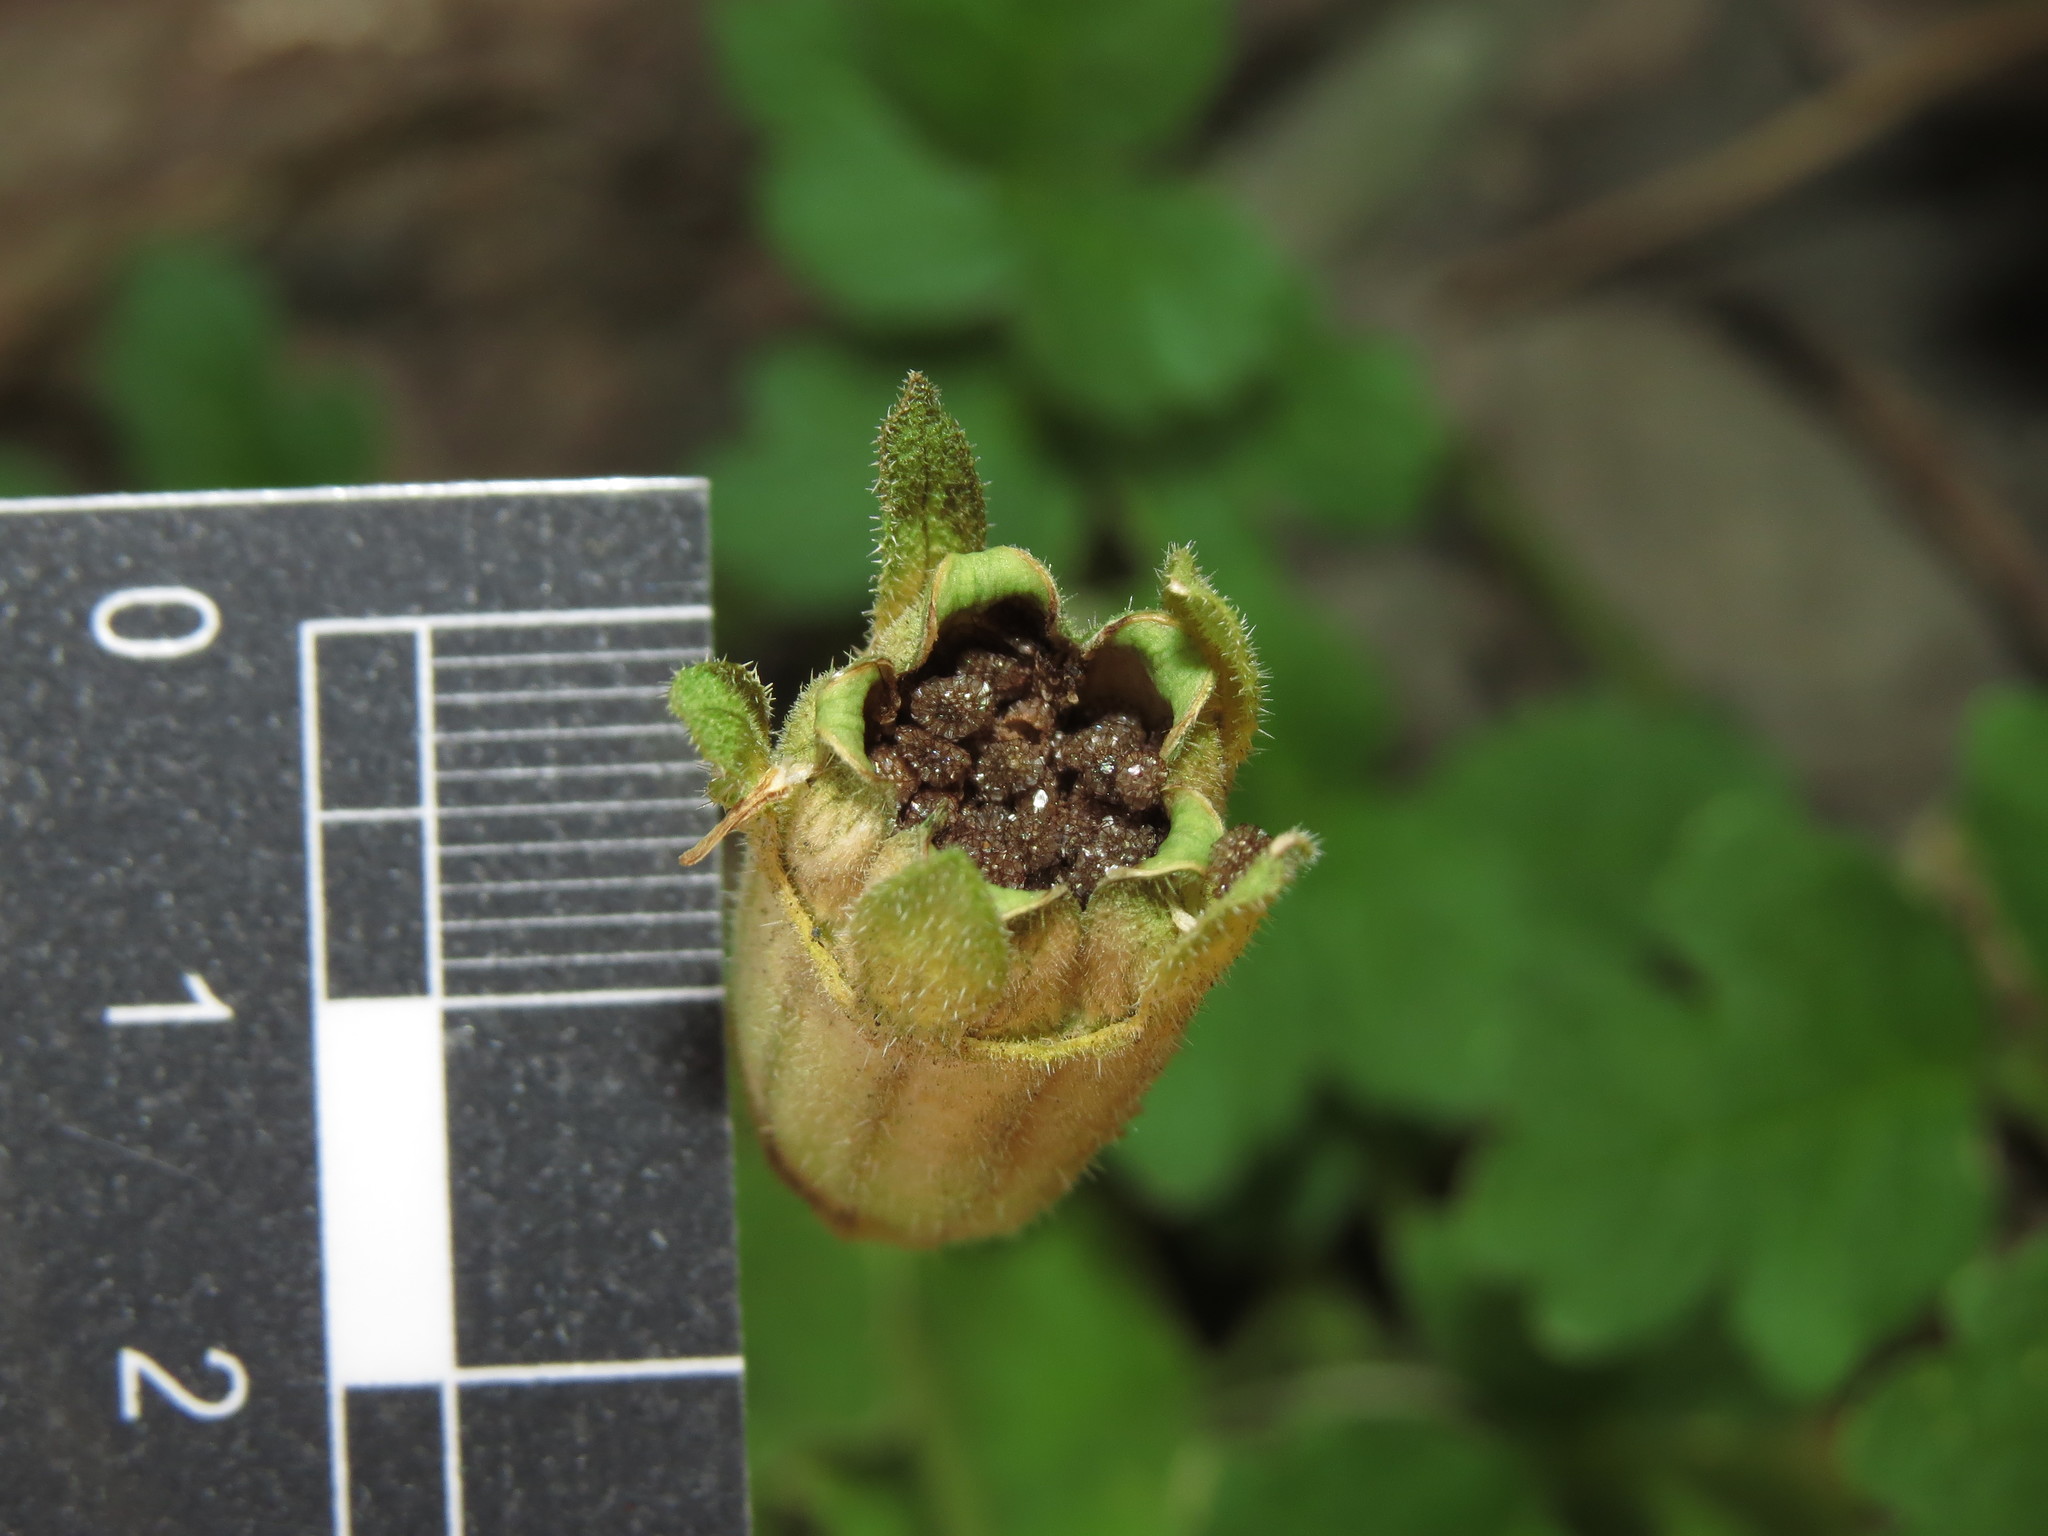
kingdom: Plantae
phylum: Tracheophyta
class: Magnoliopsida
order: Cornales
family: Loasaceae
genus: Grausa
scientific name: Grausa lateritia
